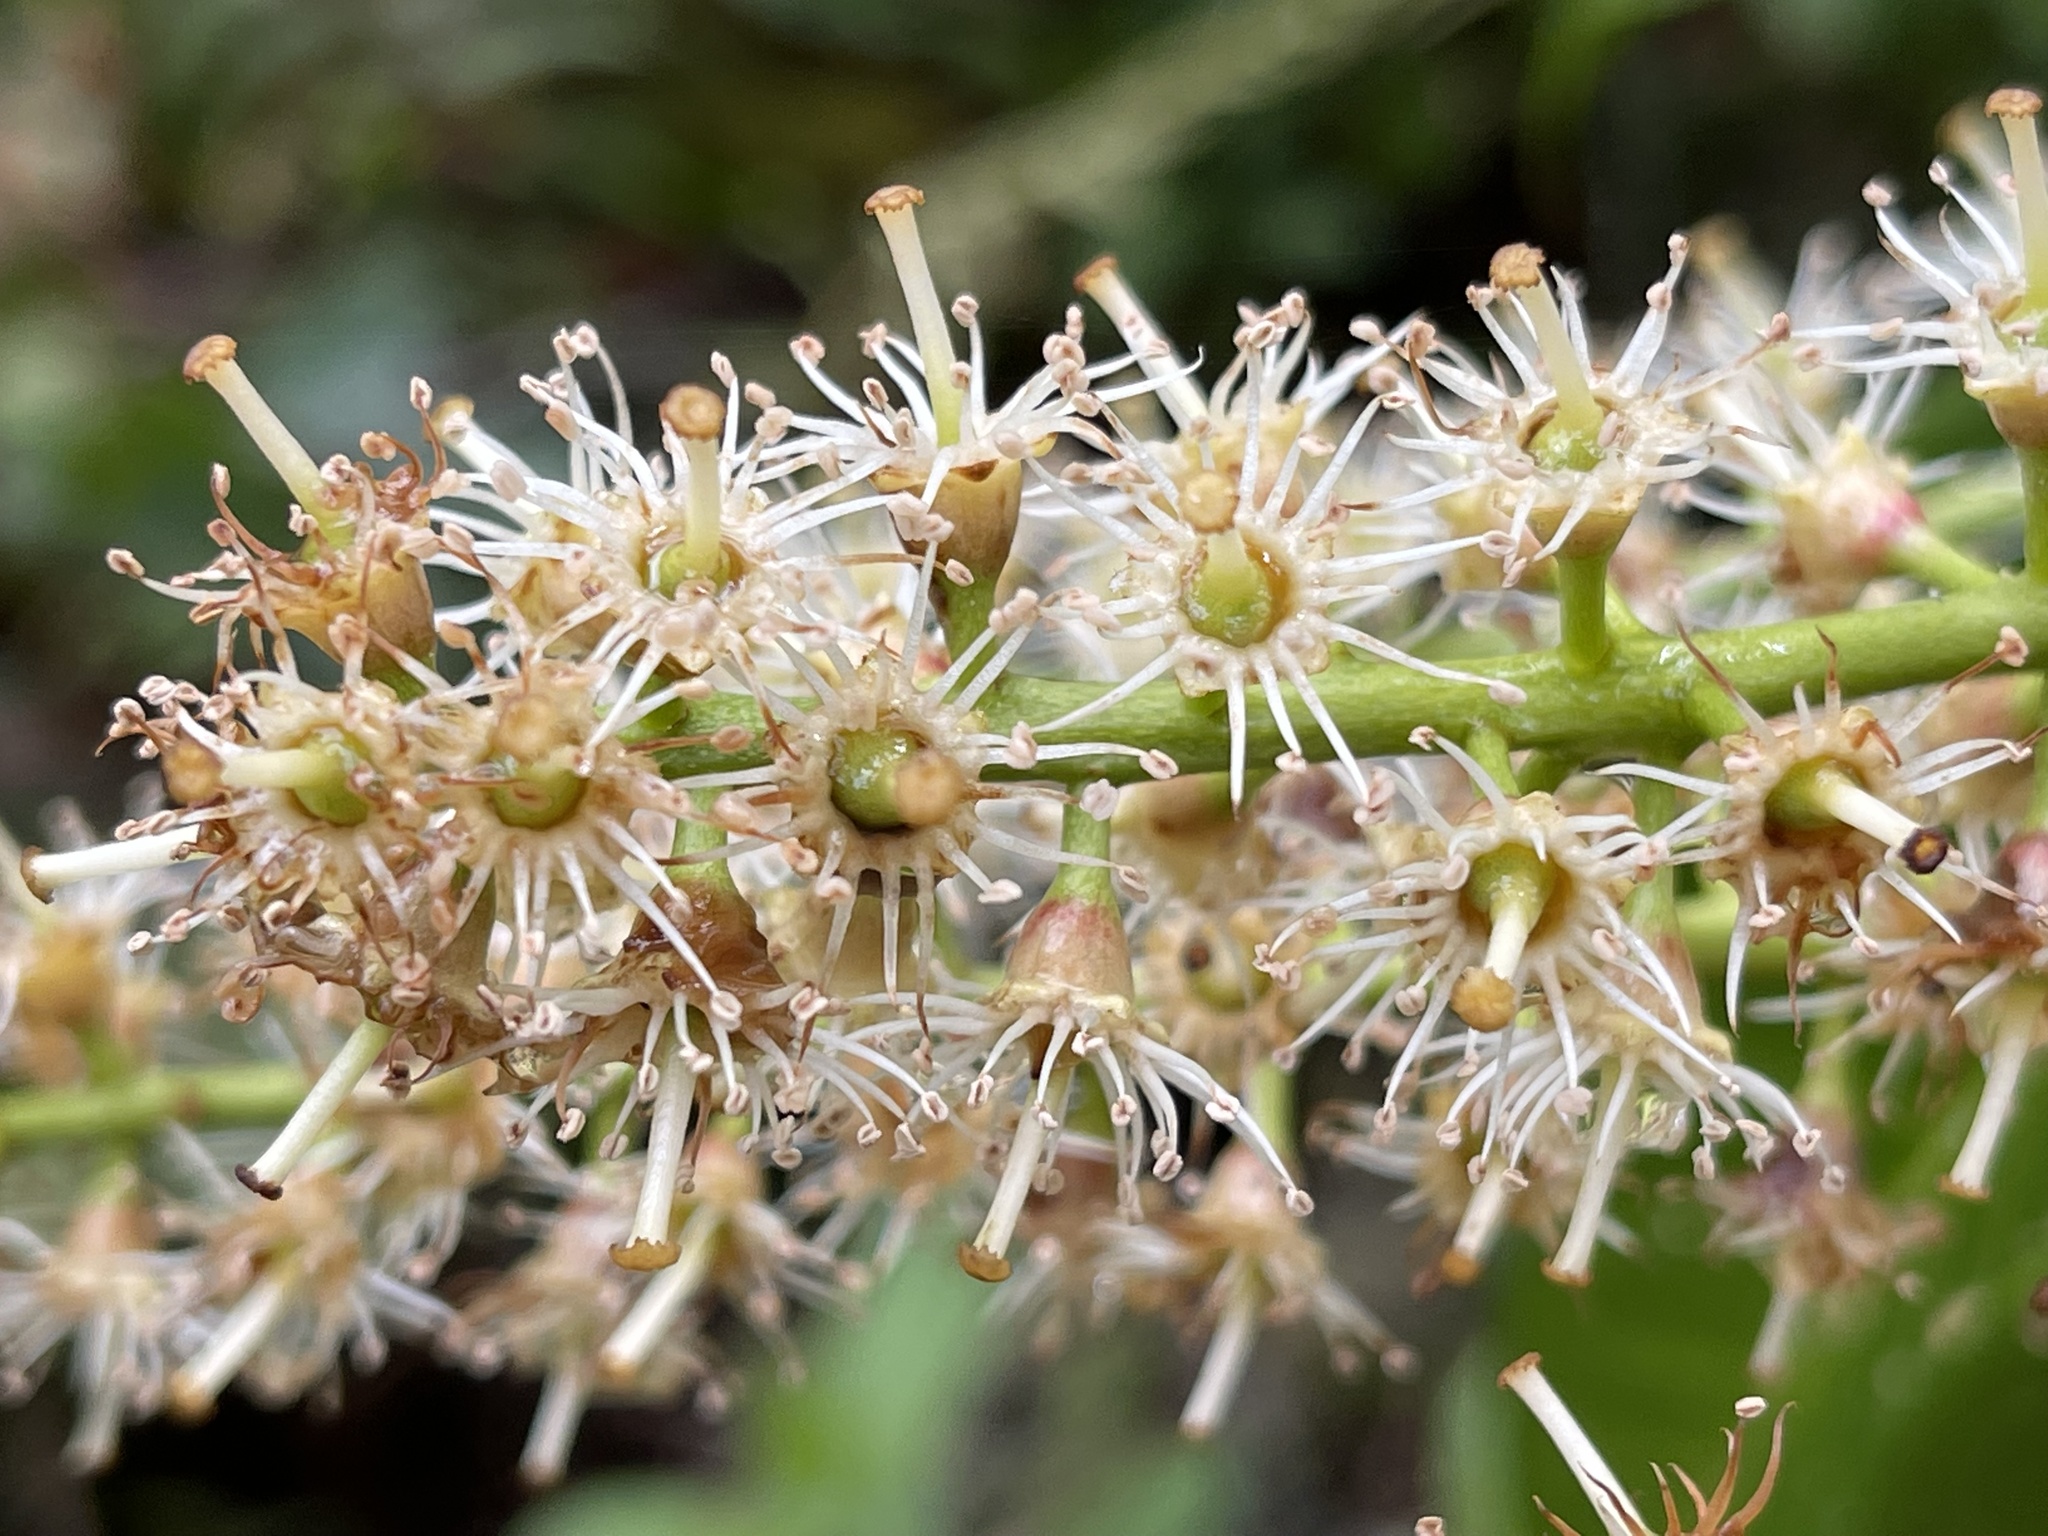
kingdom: Plantae
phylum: Tracheophyta
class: Magnoliopsida
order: Rosales
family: Rosaceae
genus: Prunus
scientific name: Prunus laurocerasus
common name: Cherry laurel
